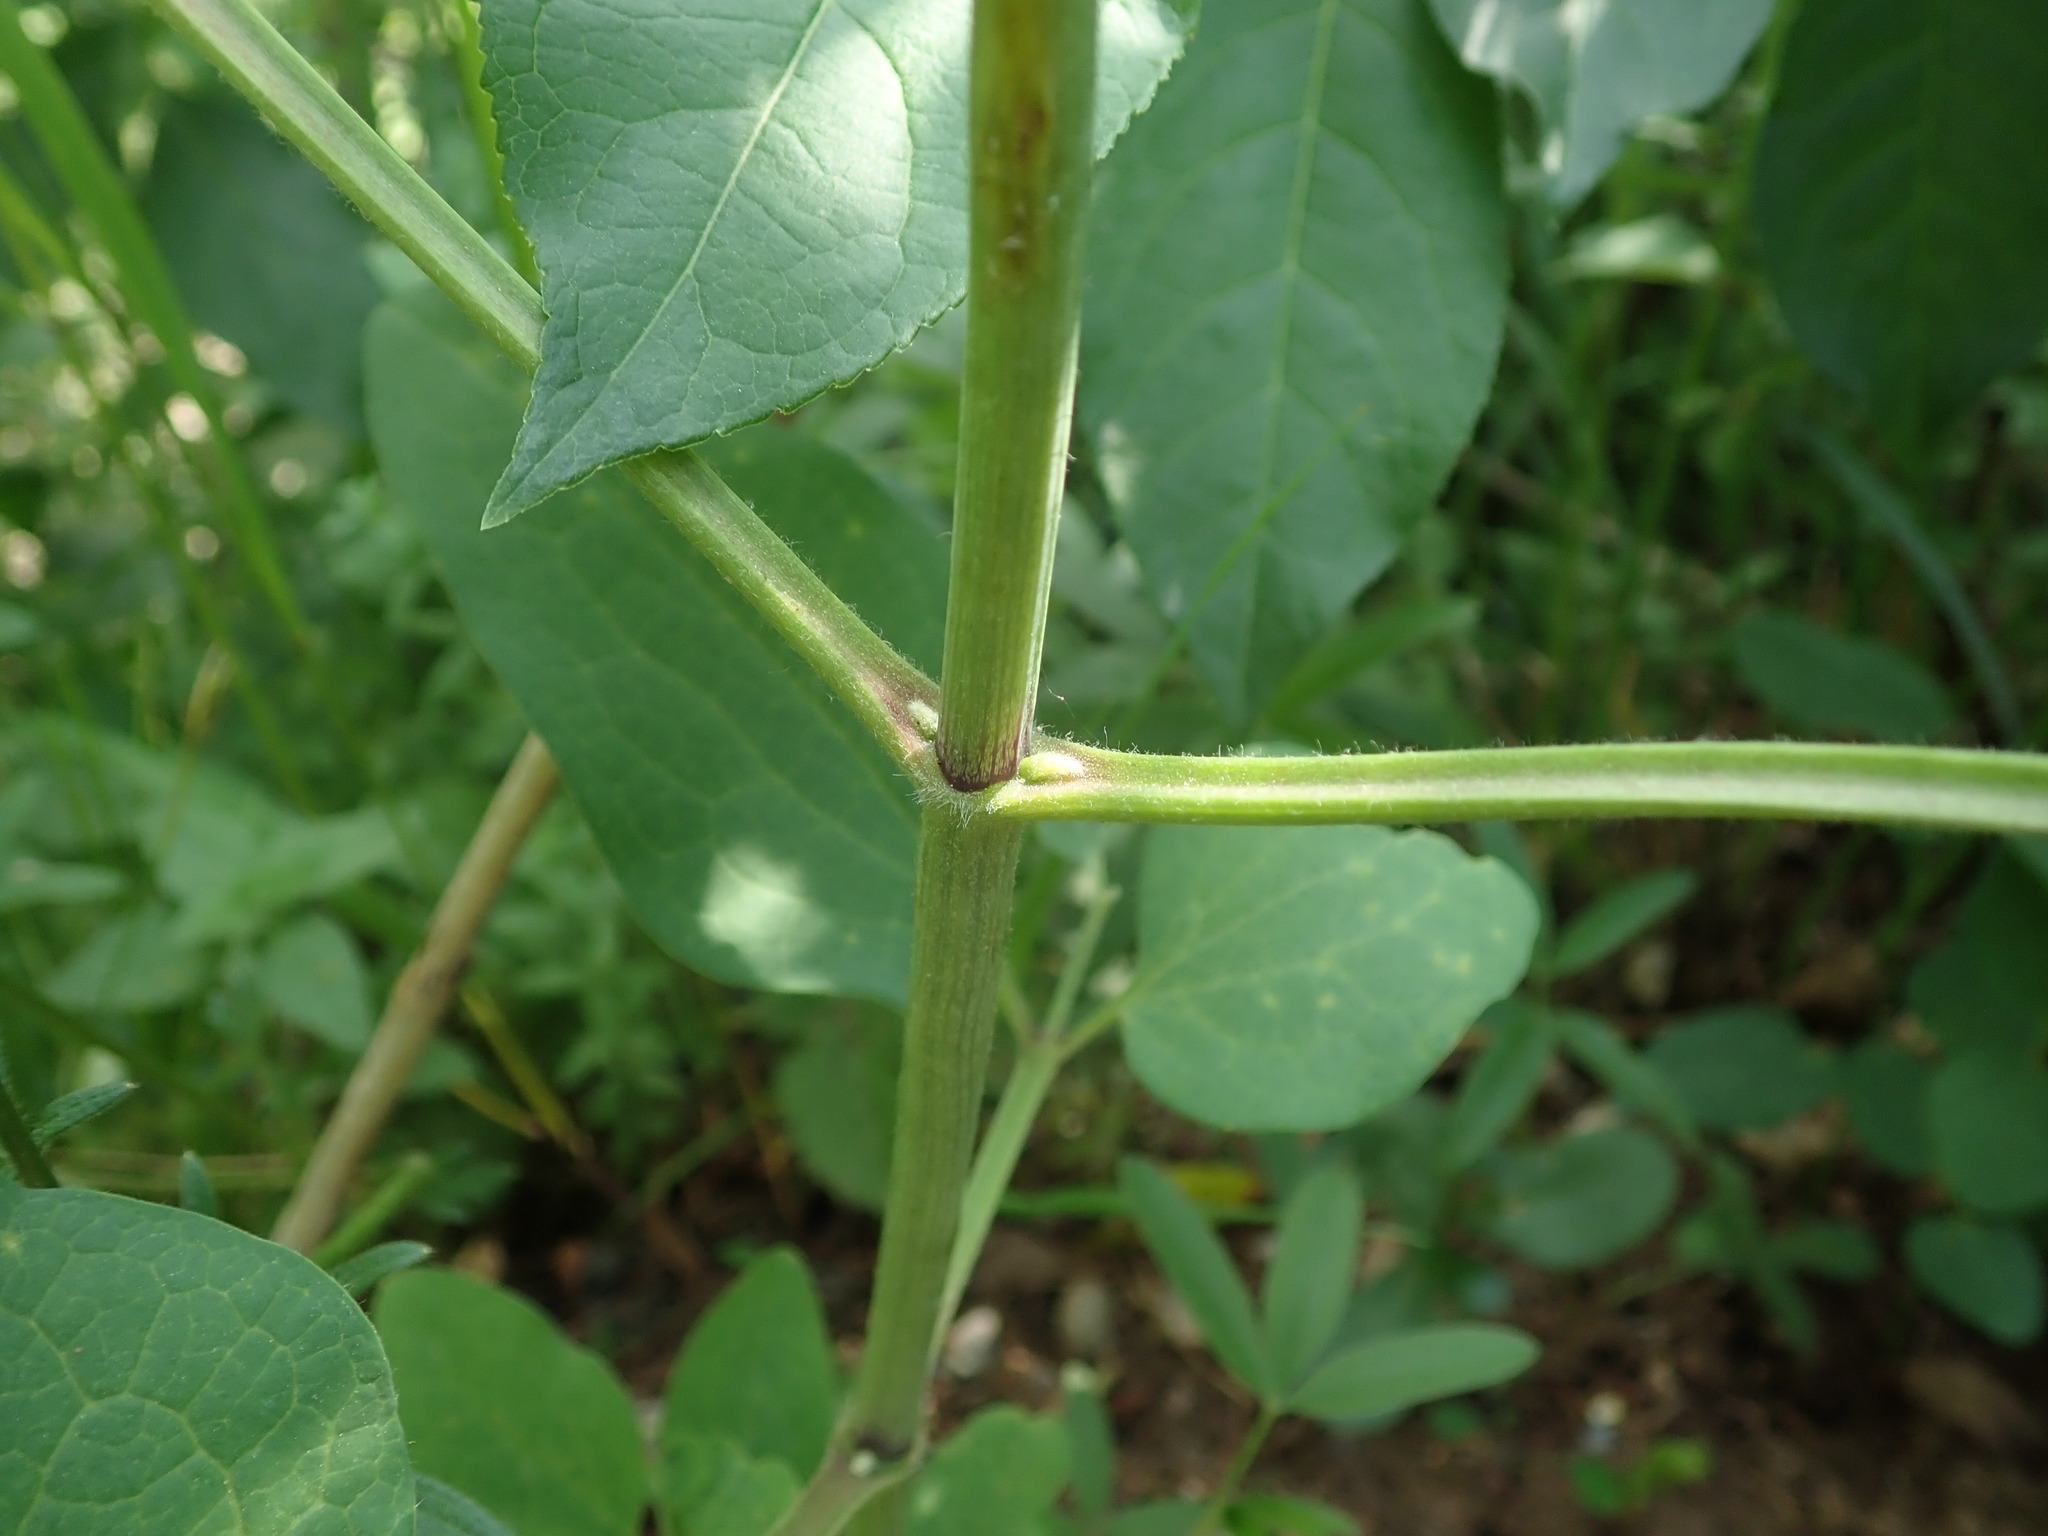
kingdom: Plantae
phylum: Tracheophyta
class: Magnoliopsida
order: Ranunculales
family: Ranunculaceae
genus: Clematis
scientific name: Clematis recta
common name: Ground clematis
